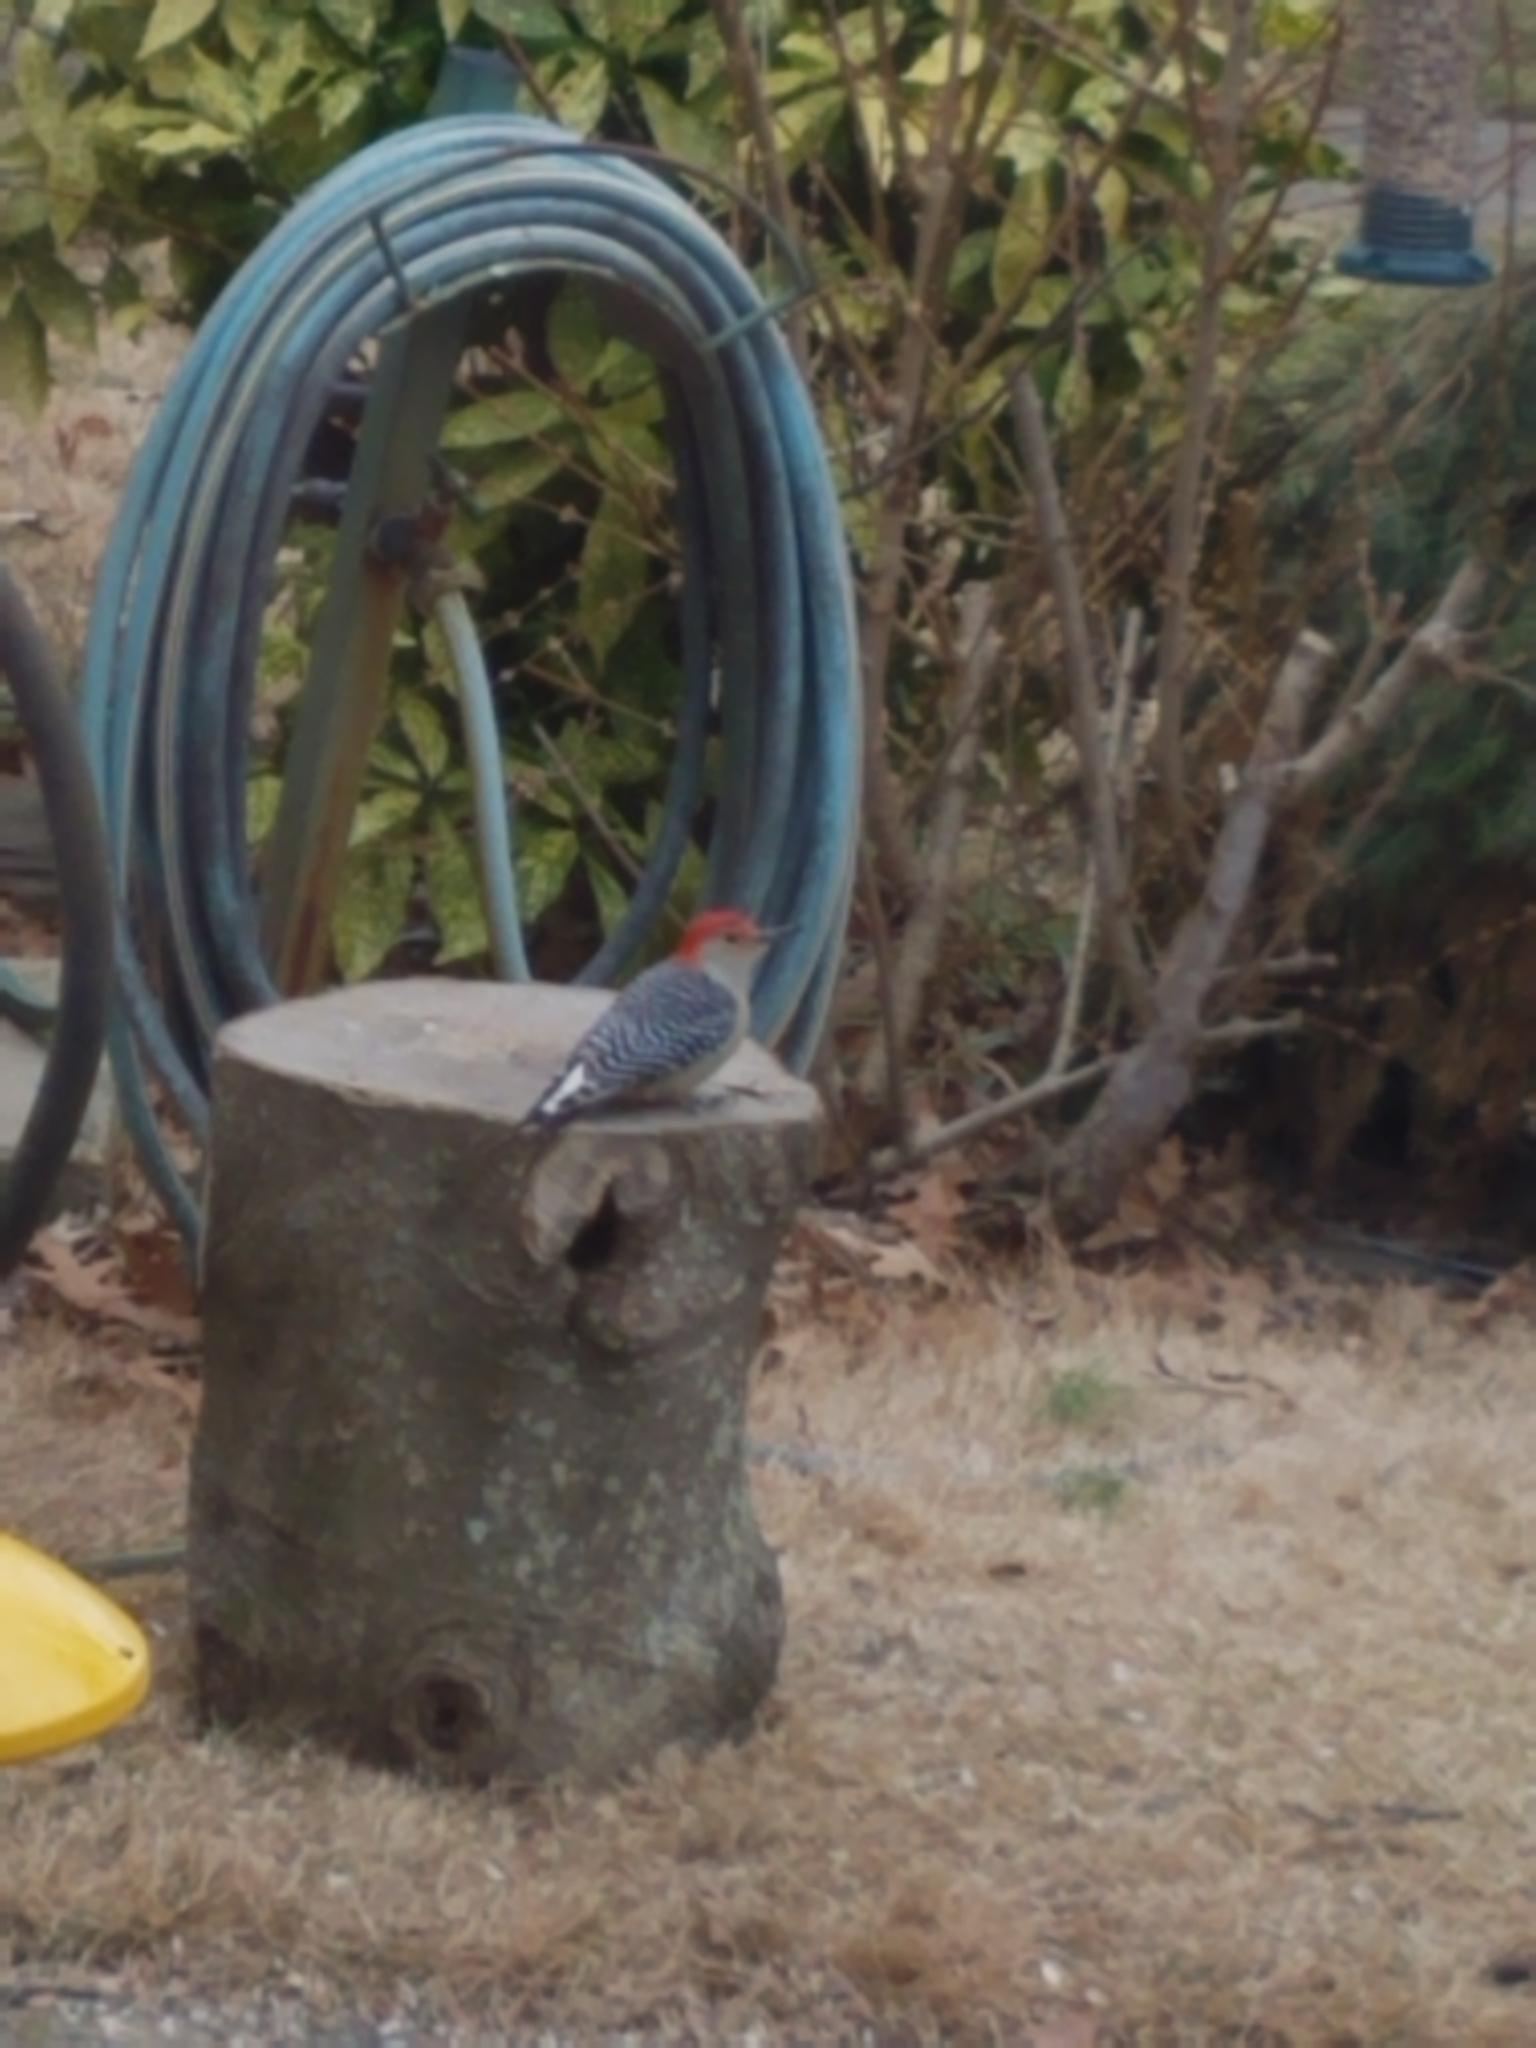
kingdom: Animalia
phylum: Chordata
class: Aves
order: Piciformes
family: Picidae
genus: Melanerpes
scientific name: Melanerpes carolinus
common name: Red-bellied woodpecker
